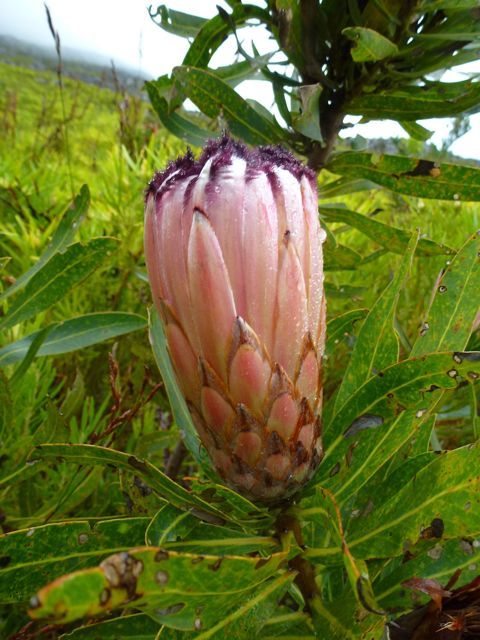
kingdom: Plantae
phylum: Tracheophyta
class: Magnoliopsida
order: Proteales
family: Proteaceae
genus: Protea
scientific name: Protea neriifolia
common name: Blue sugarbush
